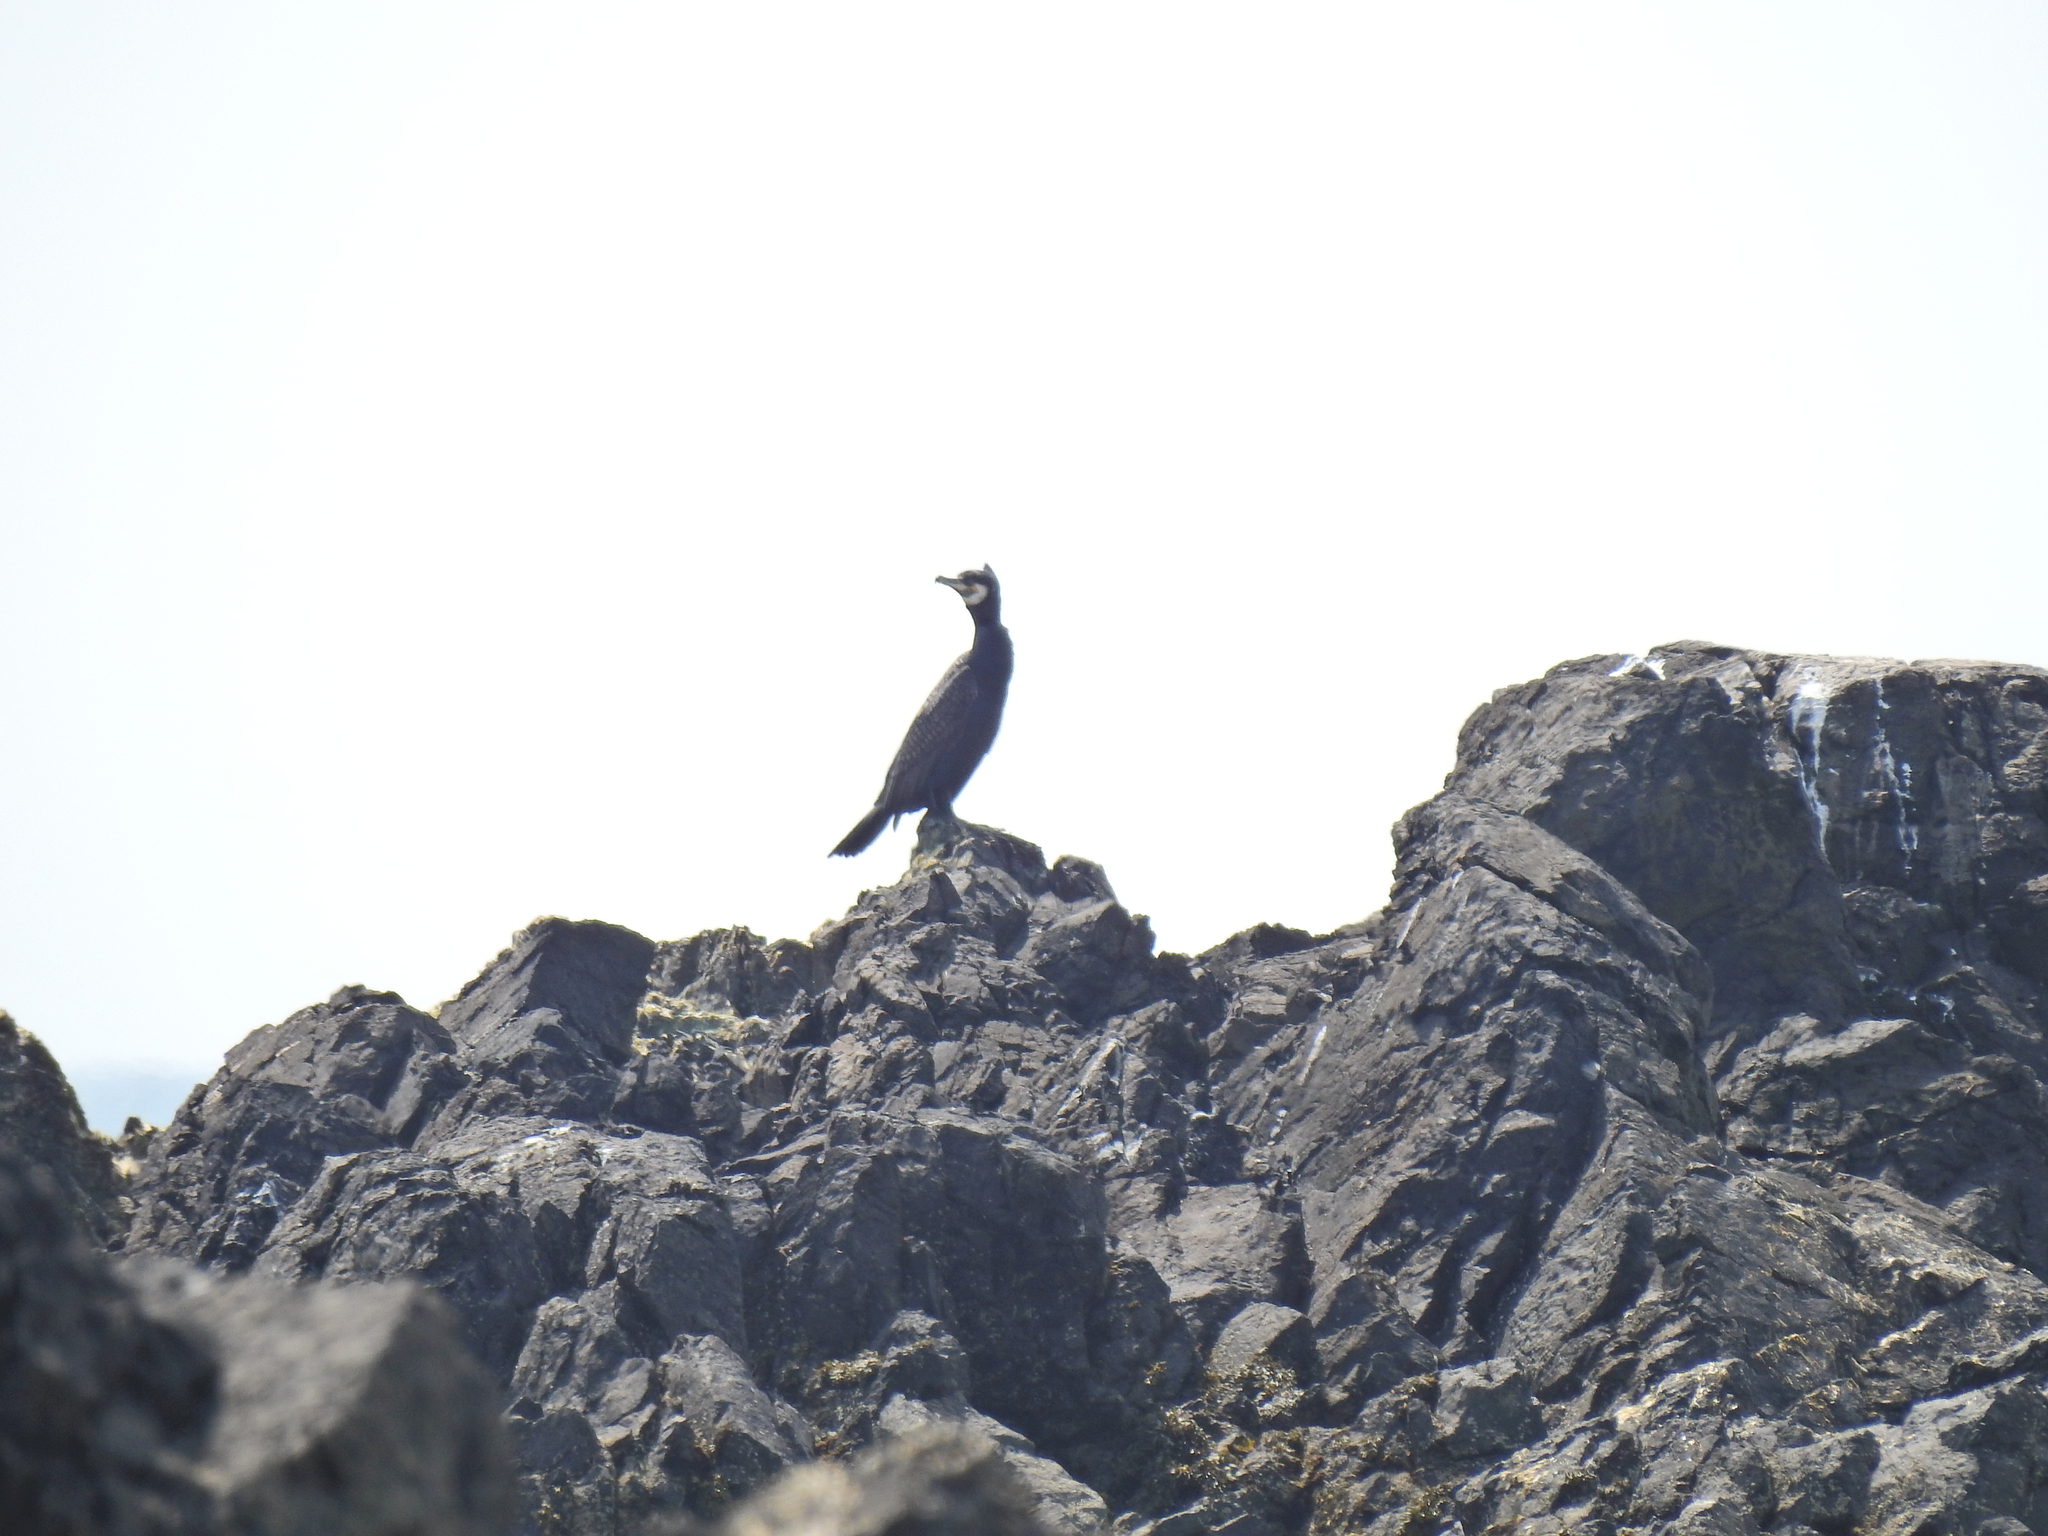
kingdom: Animalia
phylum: Chordata
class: Aves
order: Suliformes
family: Phalacrocoracidae
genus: Phalacrocorax
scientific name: Phalacrocorax carbo
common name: Great cormorant
